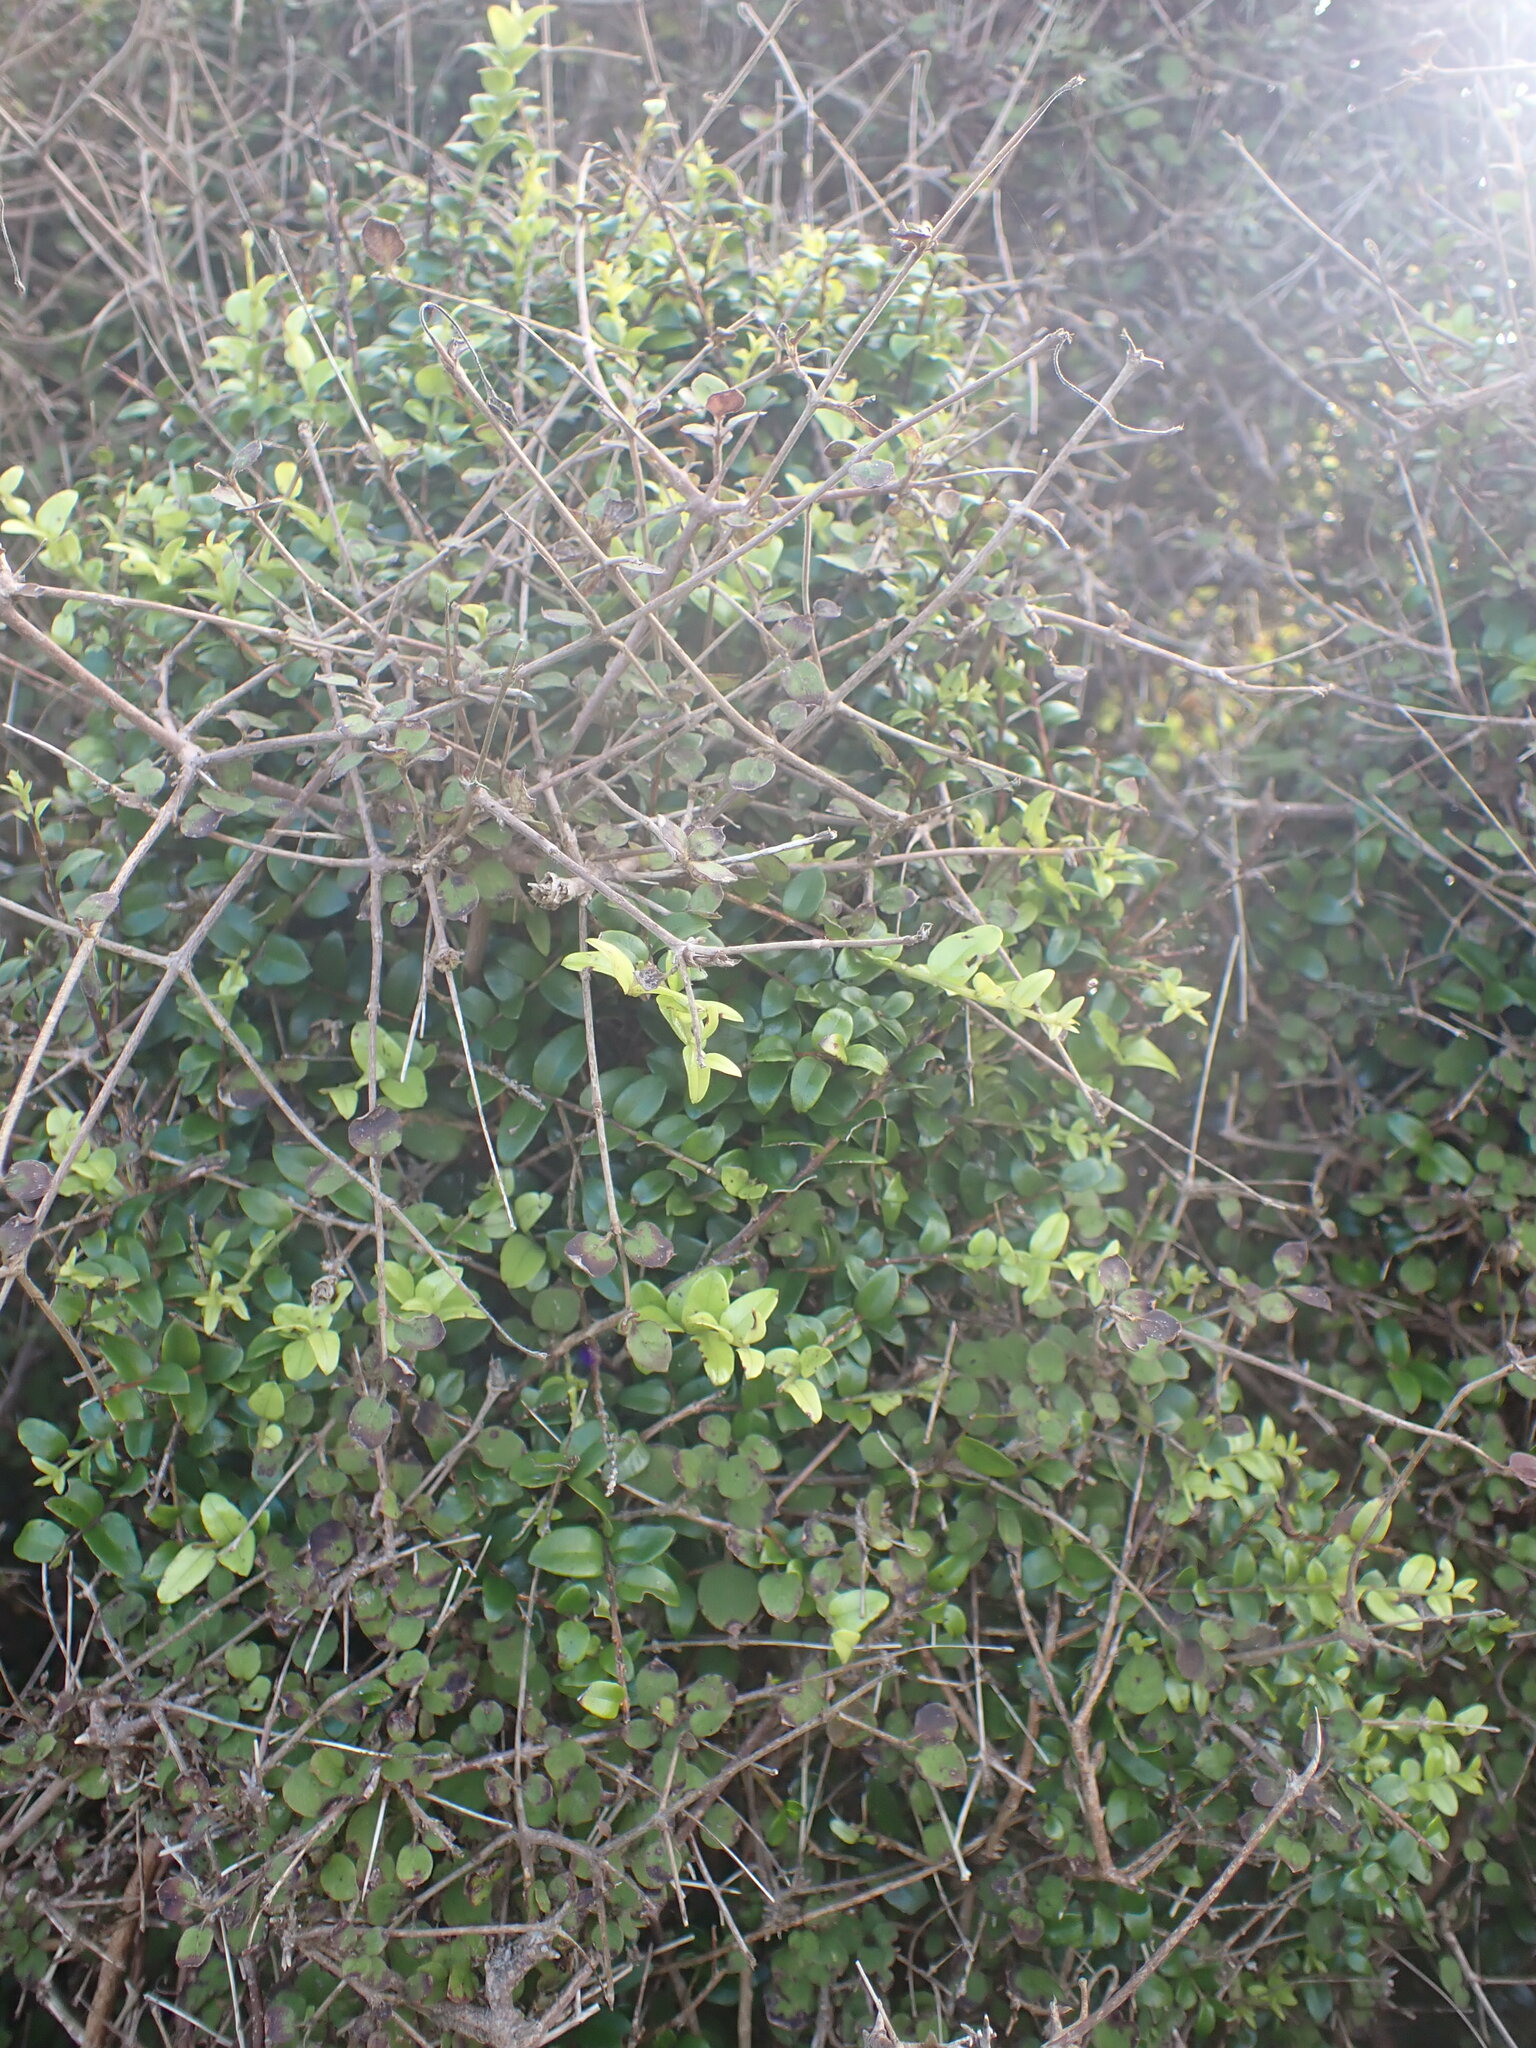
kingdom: Plantae
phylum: Tracheophyta
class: Magnoliopsida
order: Myrtales
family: Myrtaceae
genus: Metrosideros
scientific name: Metrosideros diffusa
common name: Small ratavine
